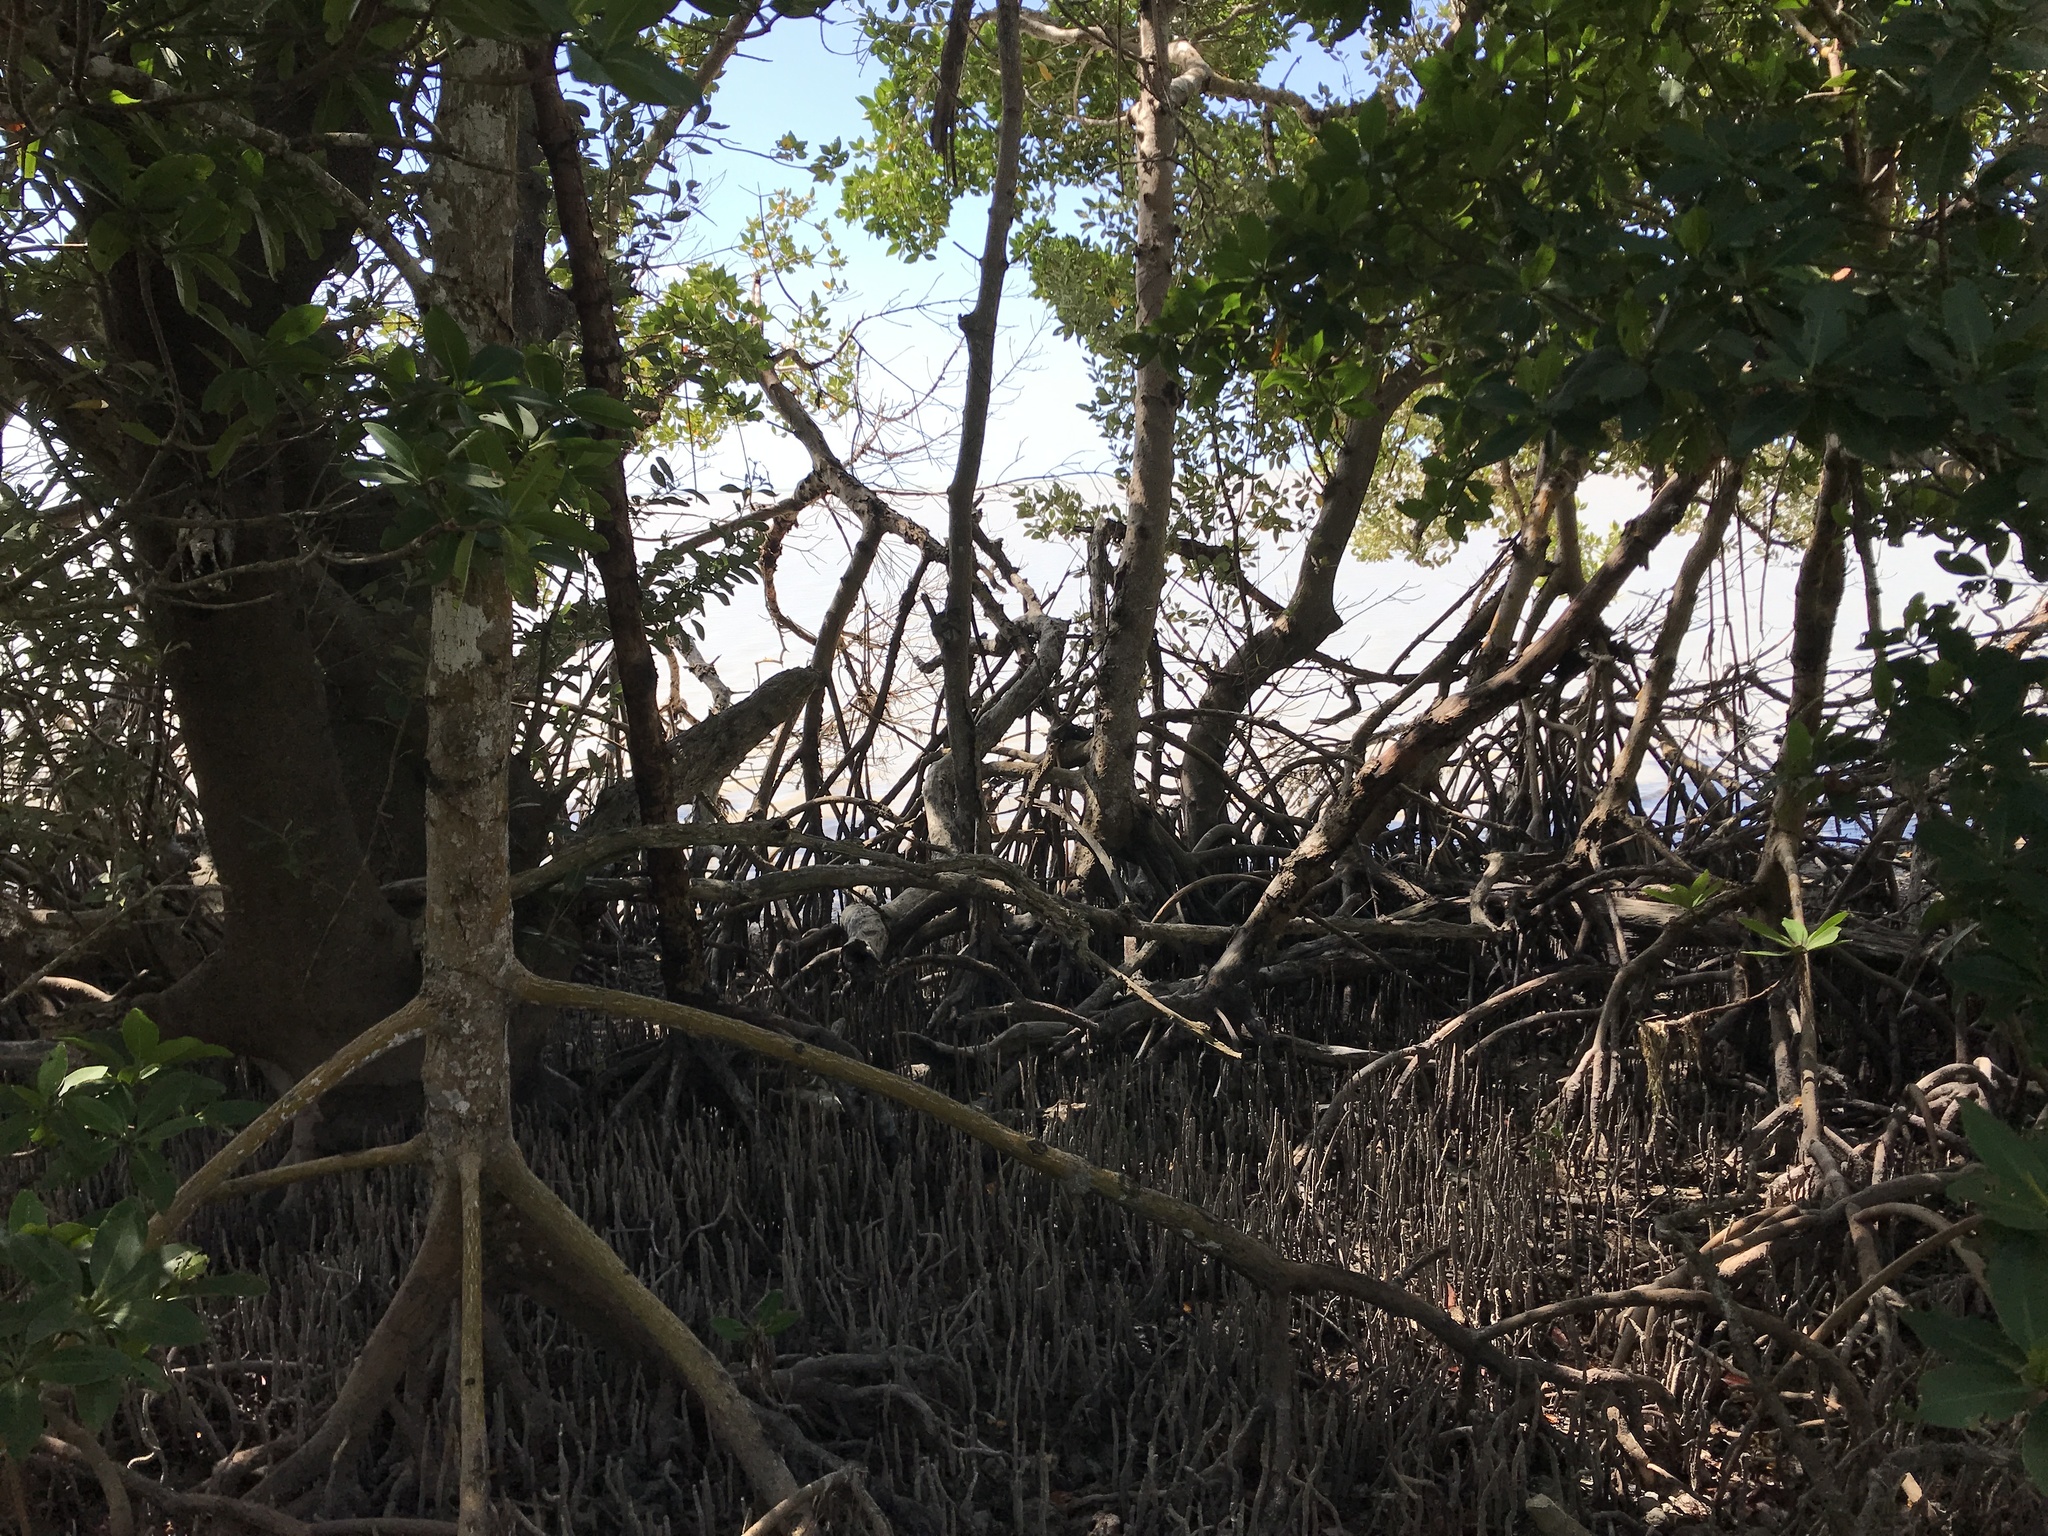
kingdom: Plantae
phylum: Tracheophyta
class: Magnoliopsida
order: Malpighiales
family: Rhizophoraceae
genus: Rhizophora
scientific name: Rhizophora mangle
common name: Red mangrove
